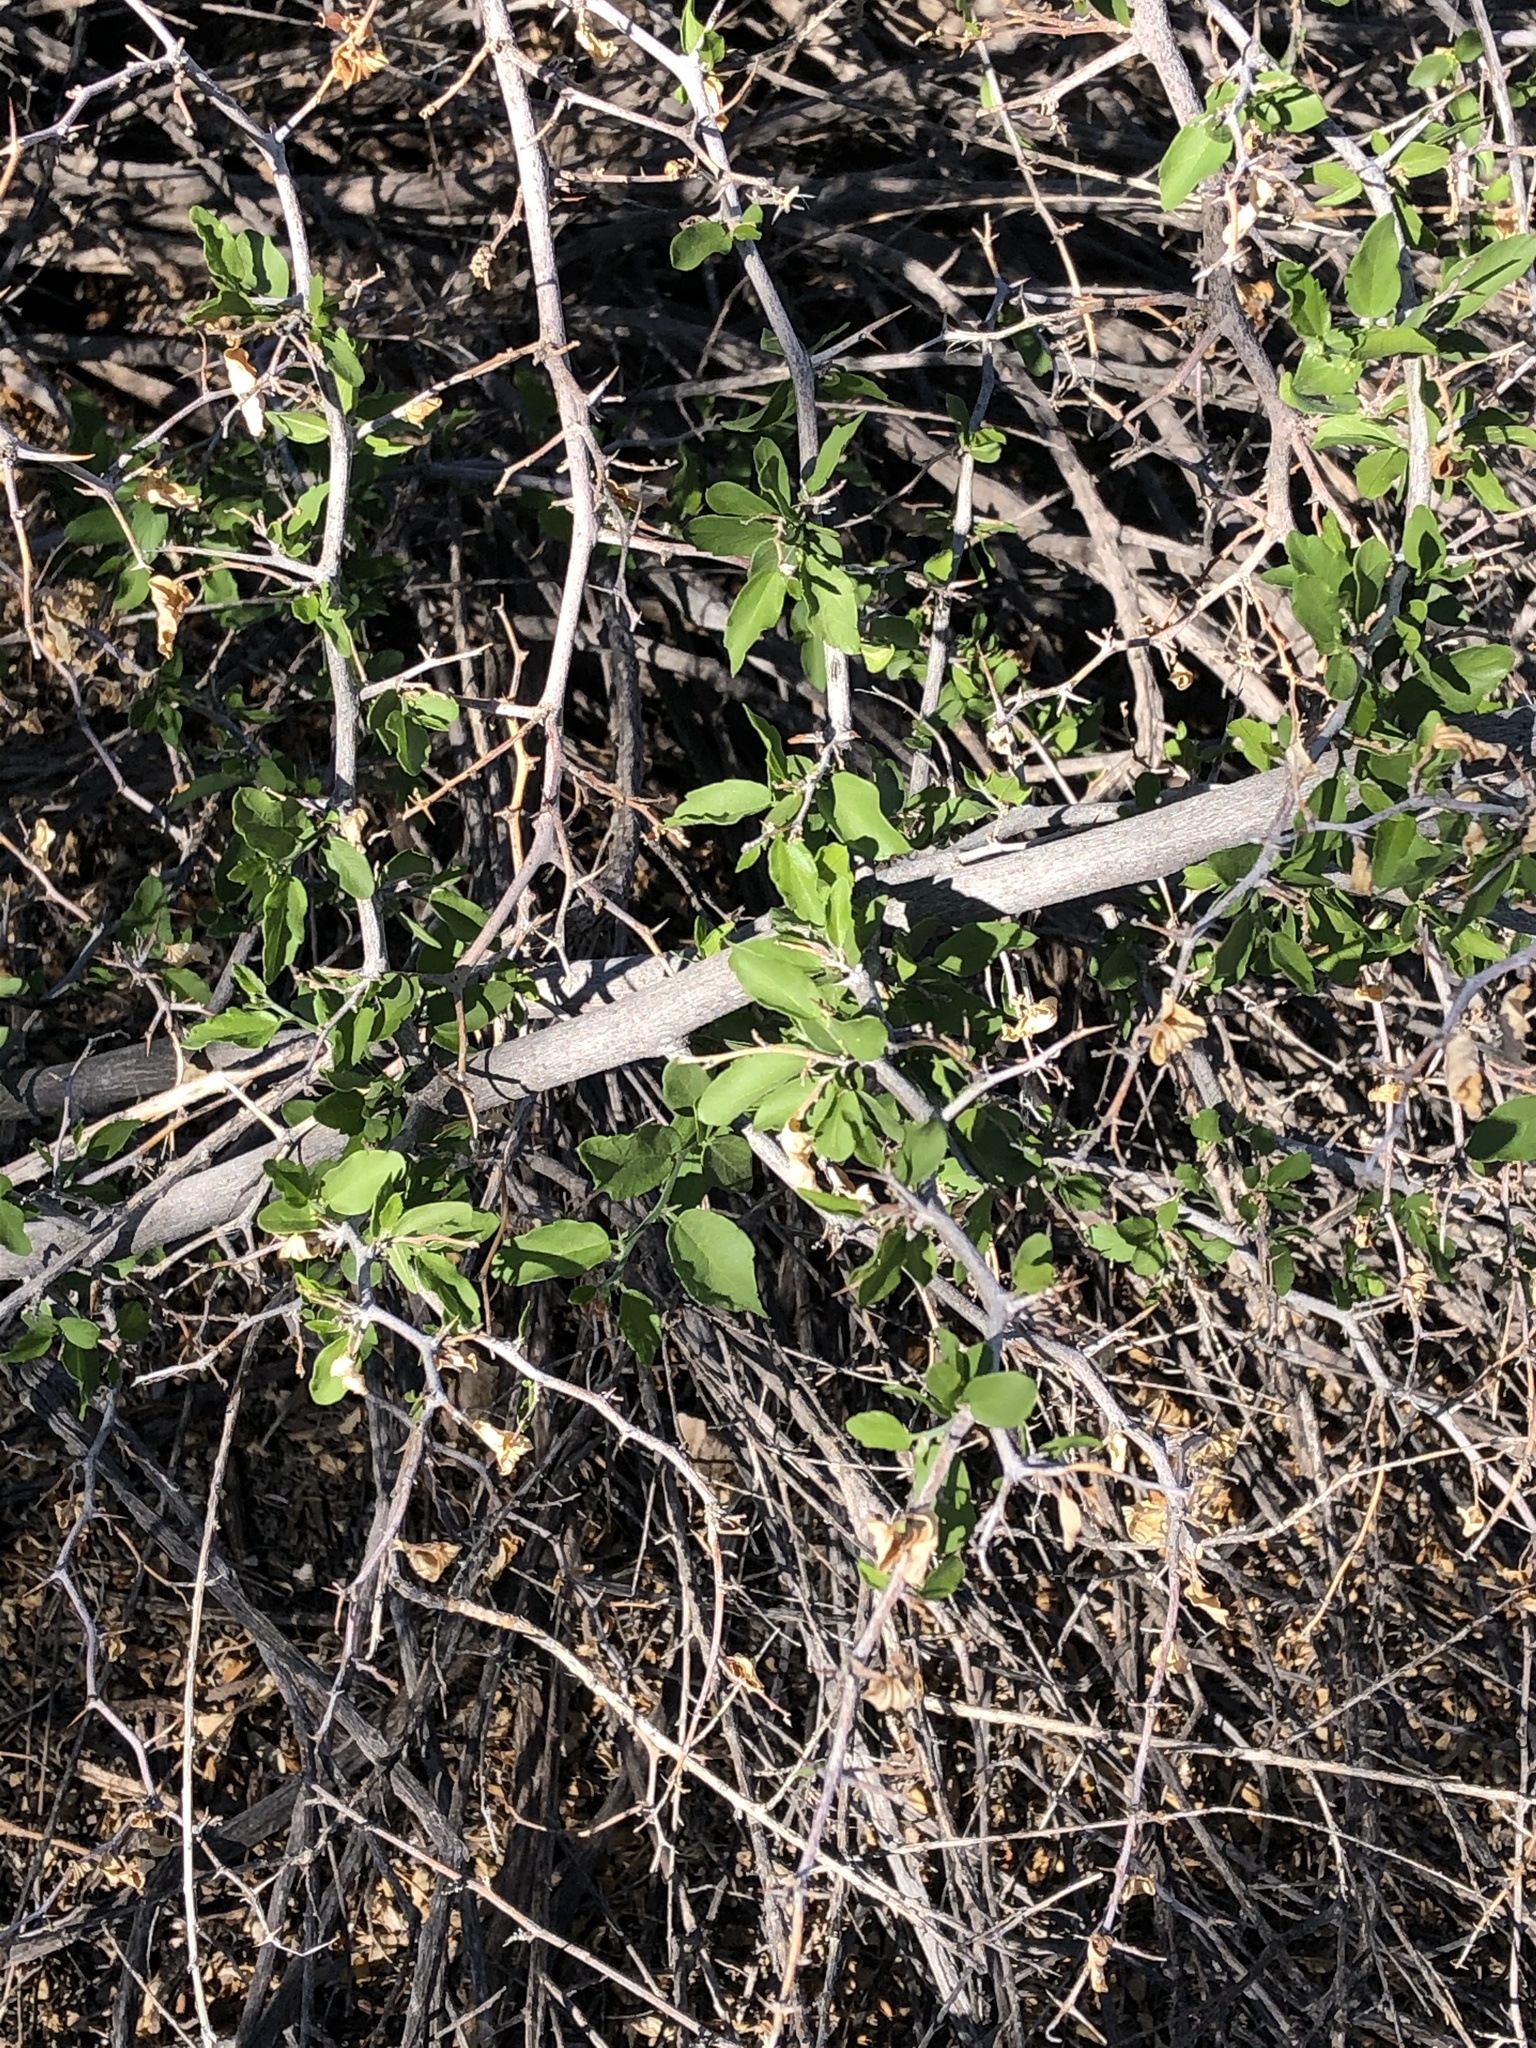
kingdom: Plantae
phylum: Tracheophyta
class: Magnoliopsida
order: Rosales
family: Cannabaceae
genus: Celtis
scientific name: Celtis pallida
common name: Desert hackberry
